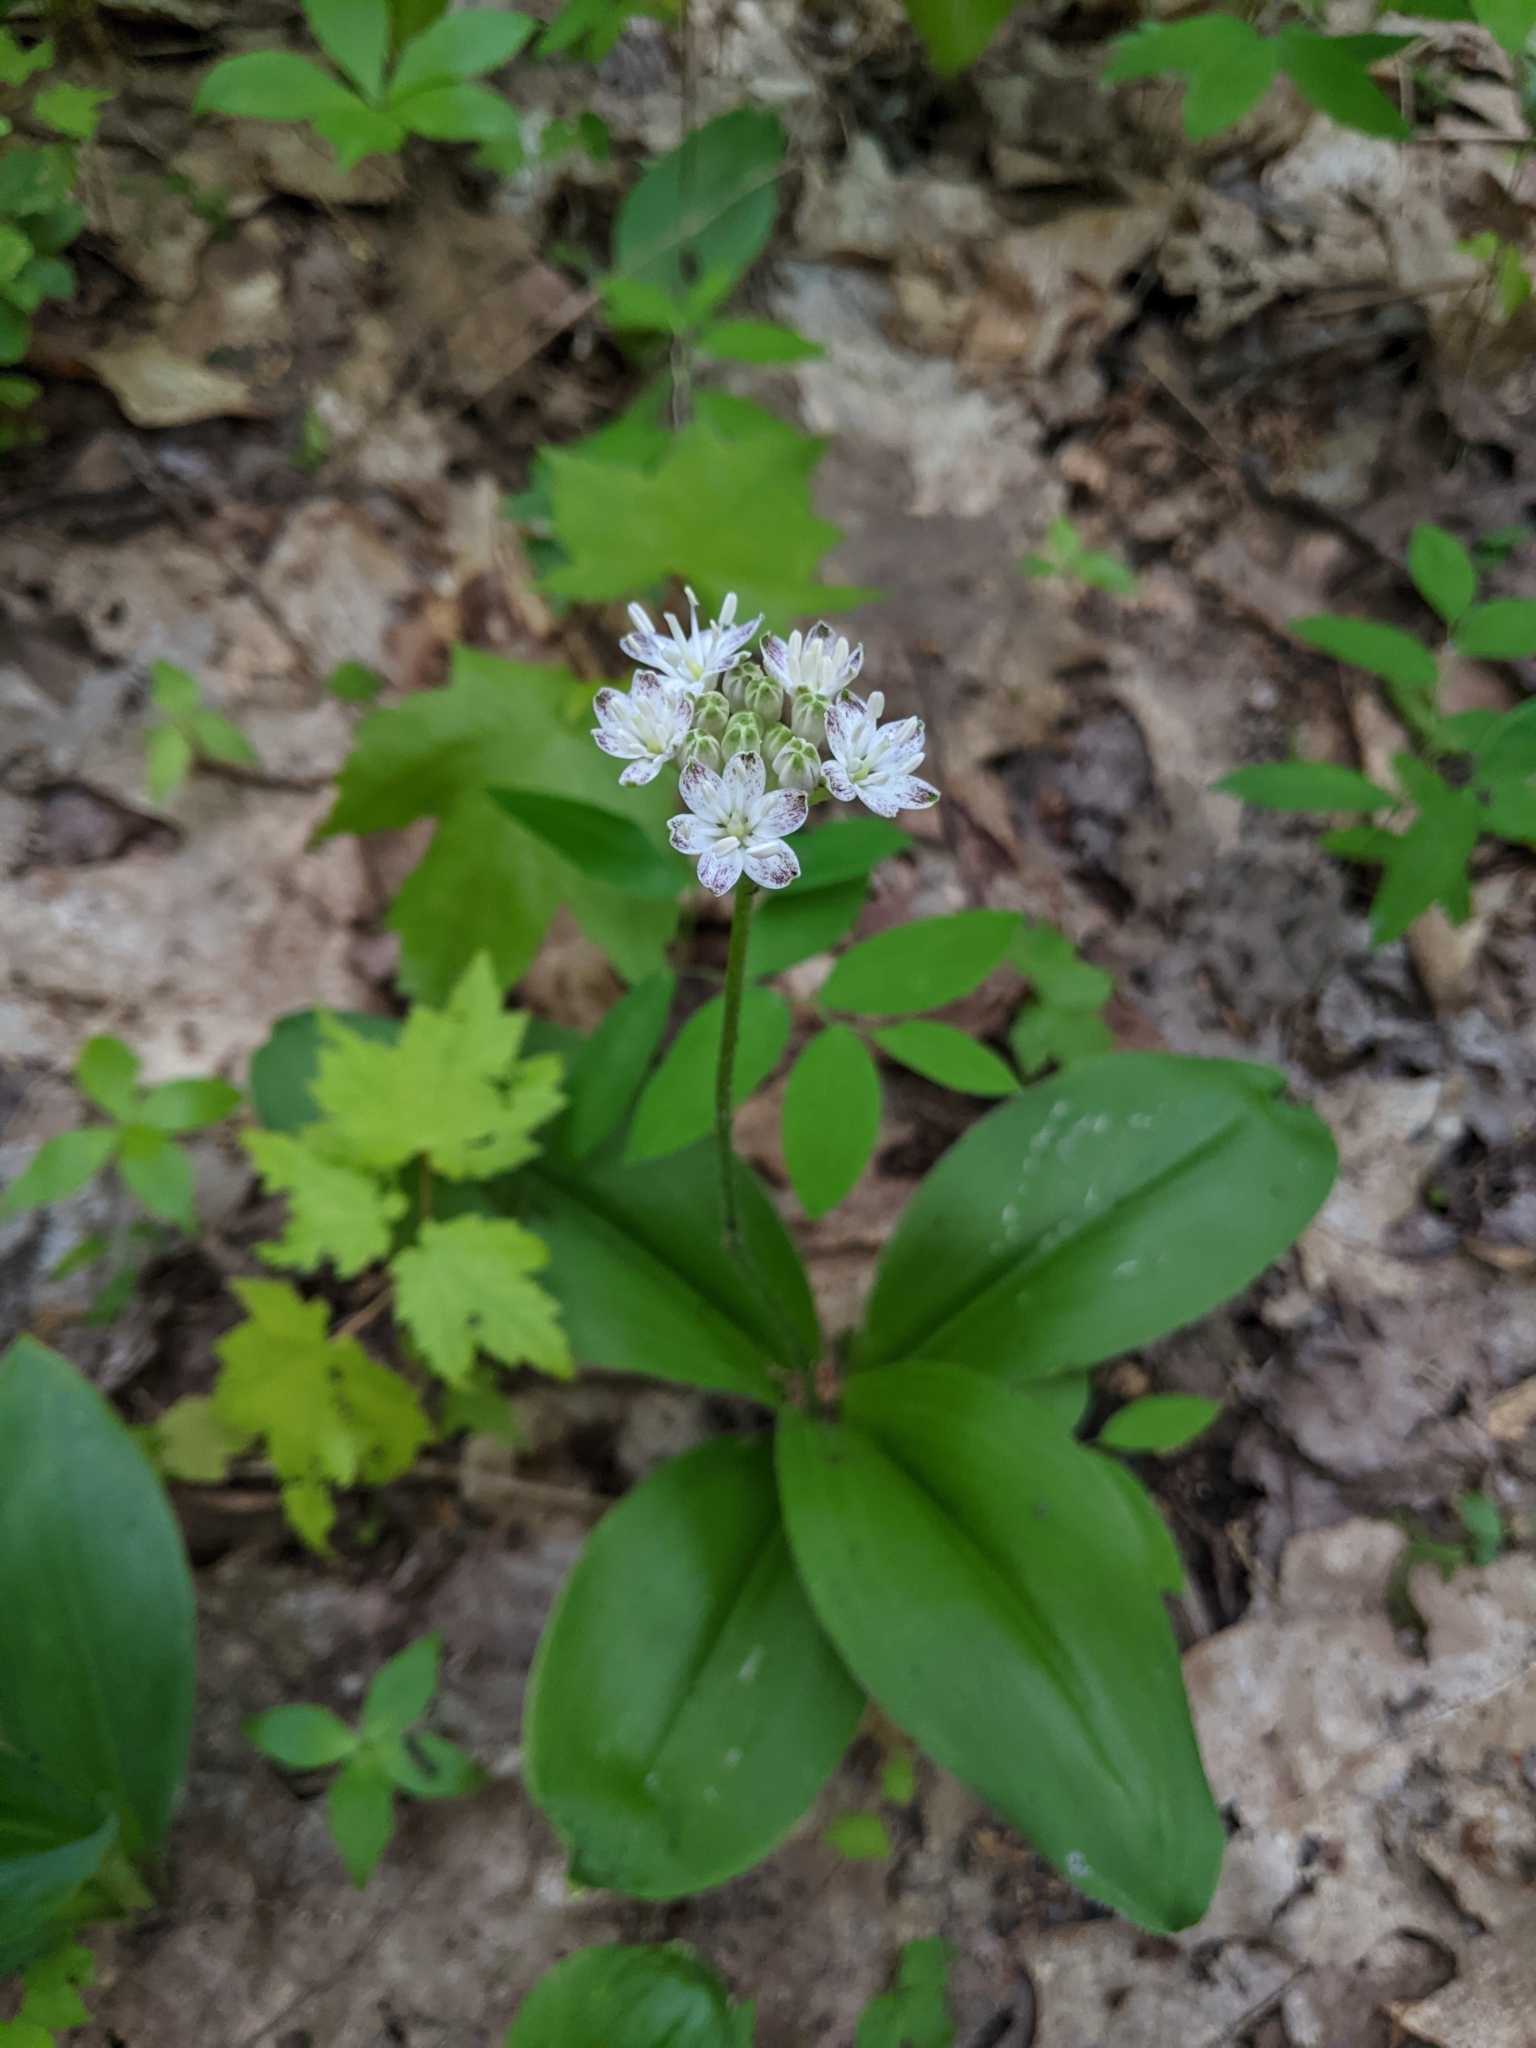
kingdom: Plantae
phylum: Tracheophyta
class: Liliopsida
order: Liliales
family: Liliaceae
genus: Clintonia
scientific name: Clintonia umbellulata
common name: Speckle wood-lily
